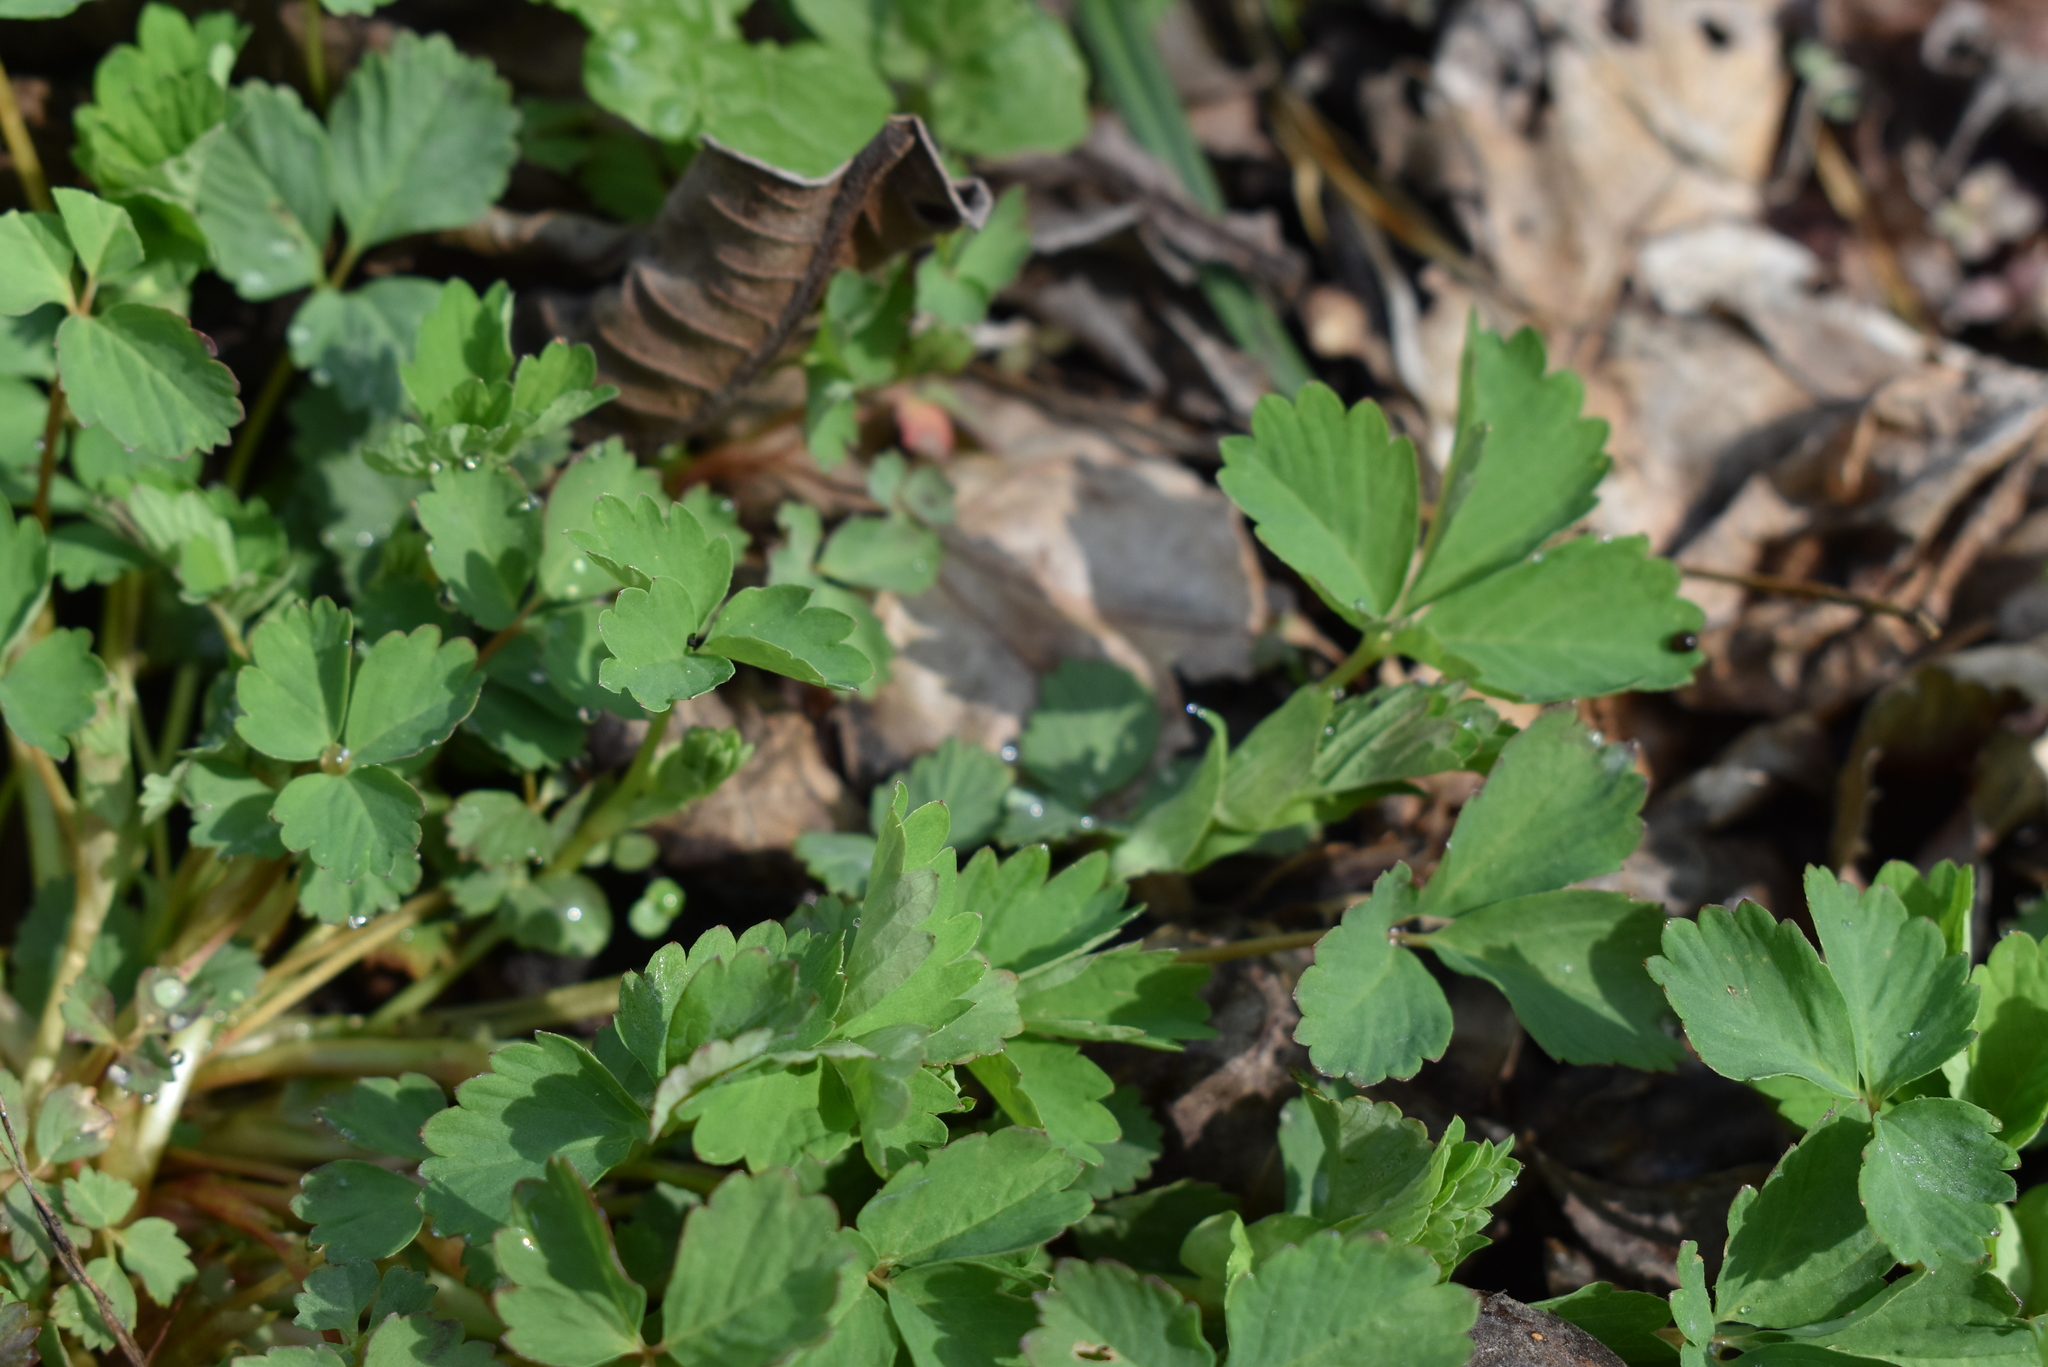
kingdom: Plantae
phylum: Tracheophyta
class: Magnoliopsida
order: Rosales
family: Rosaceae
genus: Potentilla
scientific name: Potentilla centigrana
